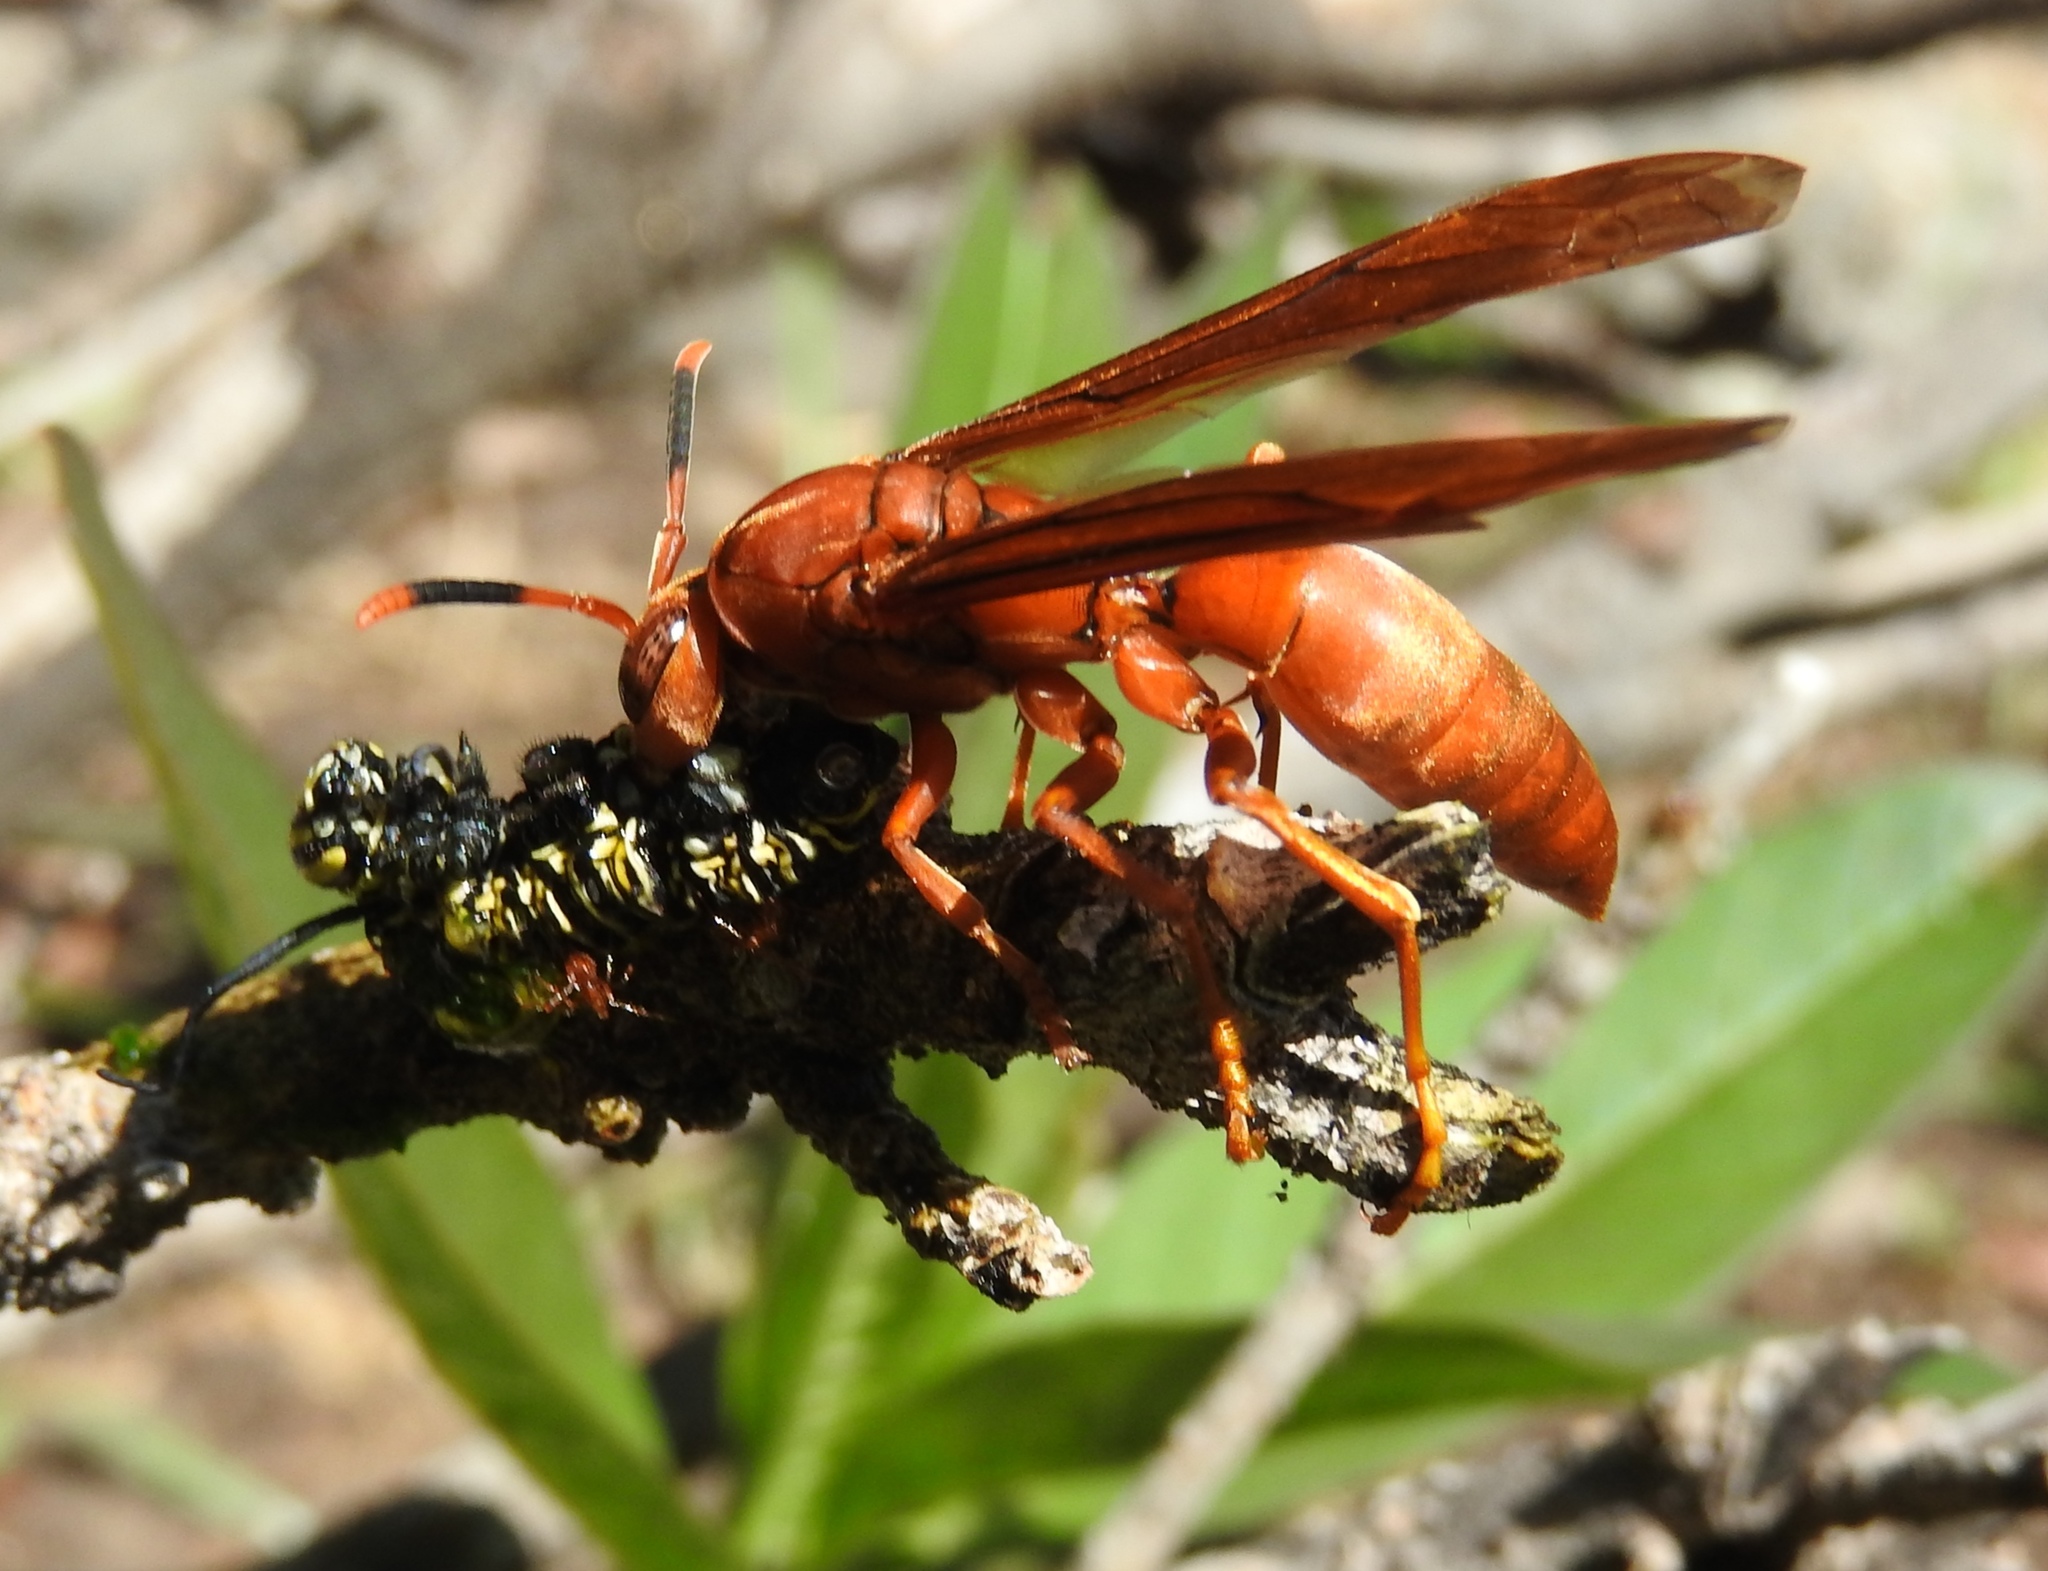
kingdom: Animalia
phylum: Arthropoda
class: Insecta
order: Hymenoptera
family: Eumenidae
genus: Polistes
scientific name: Polistes canadensis
